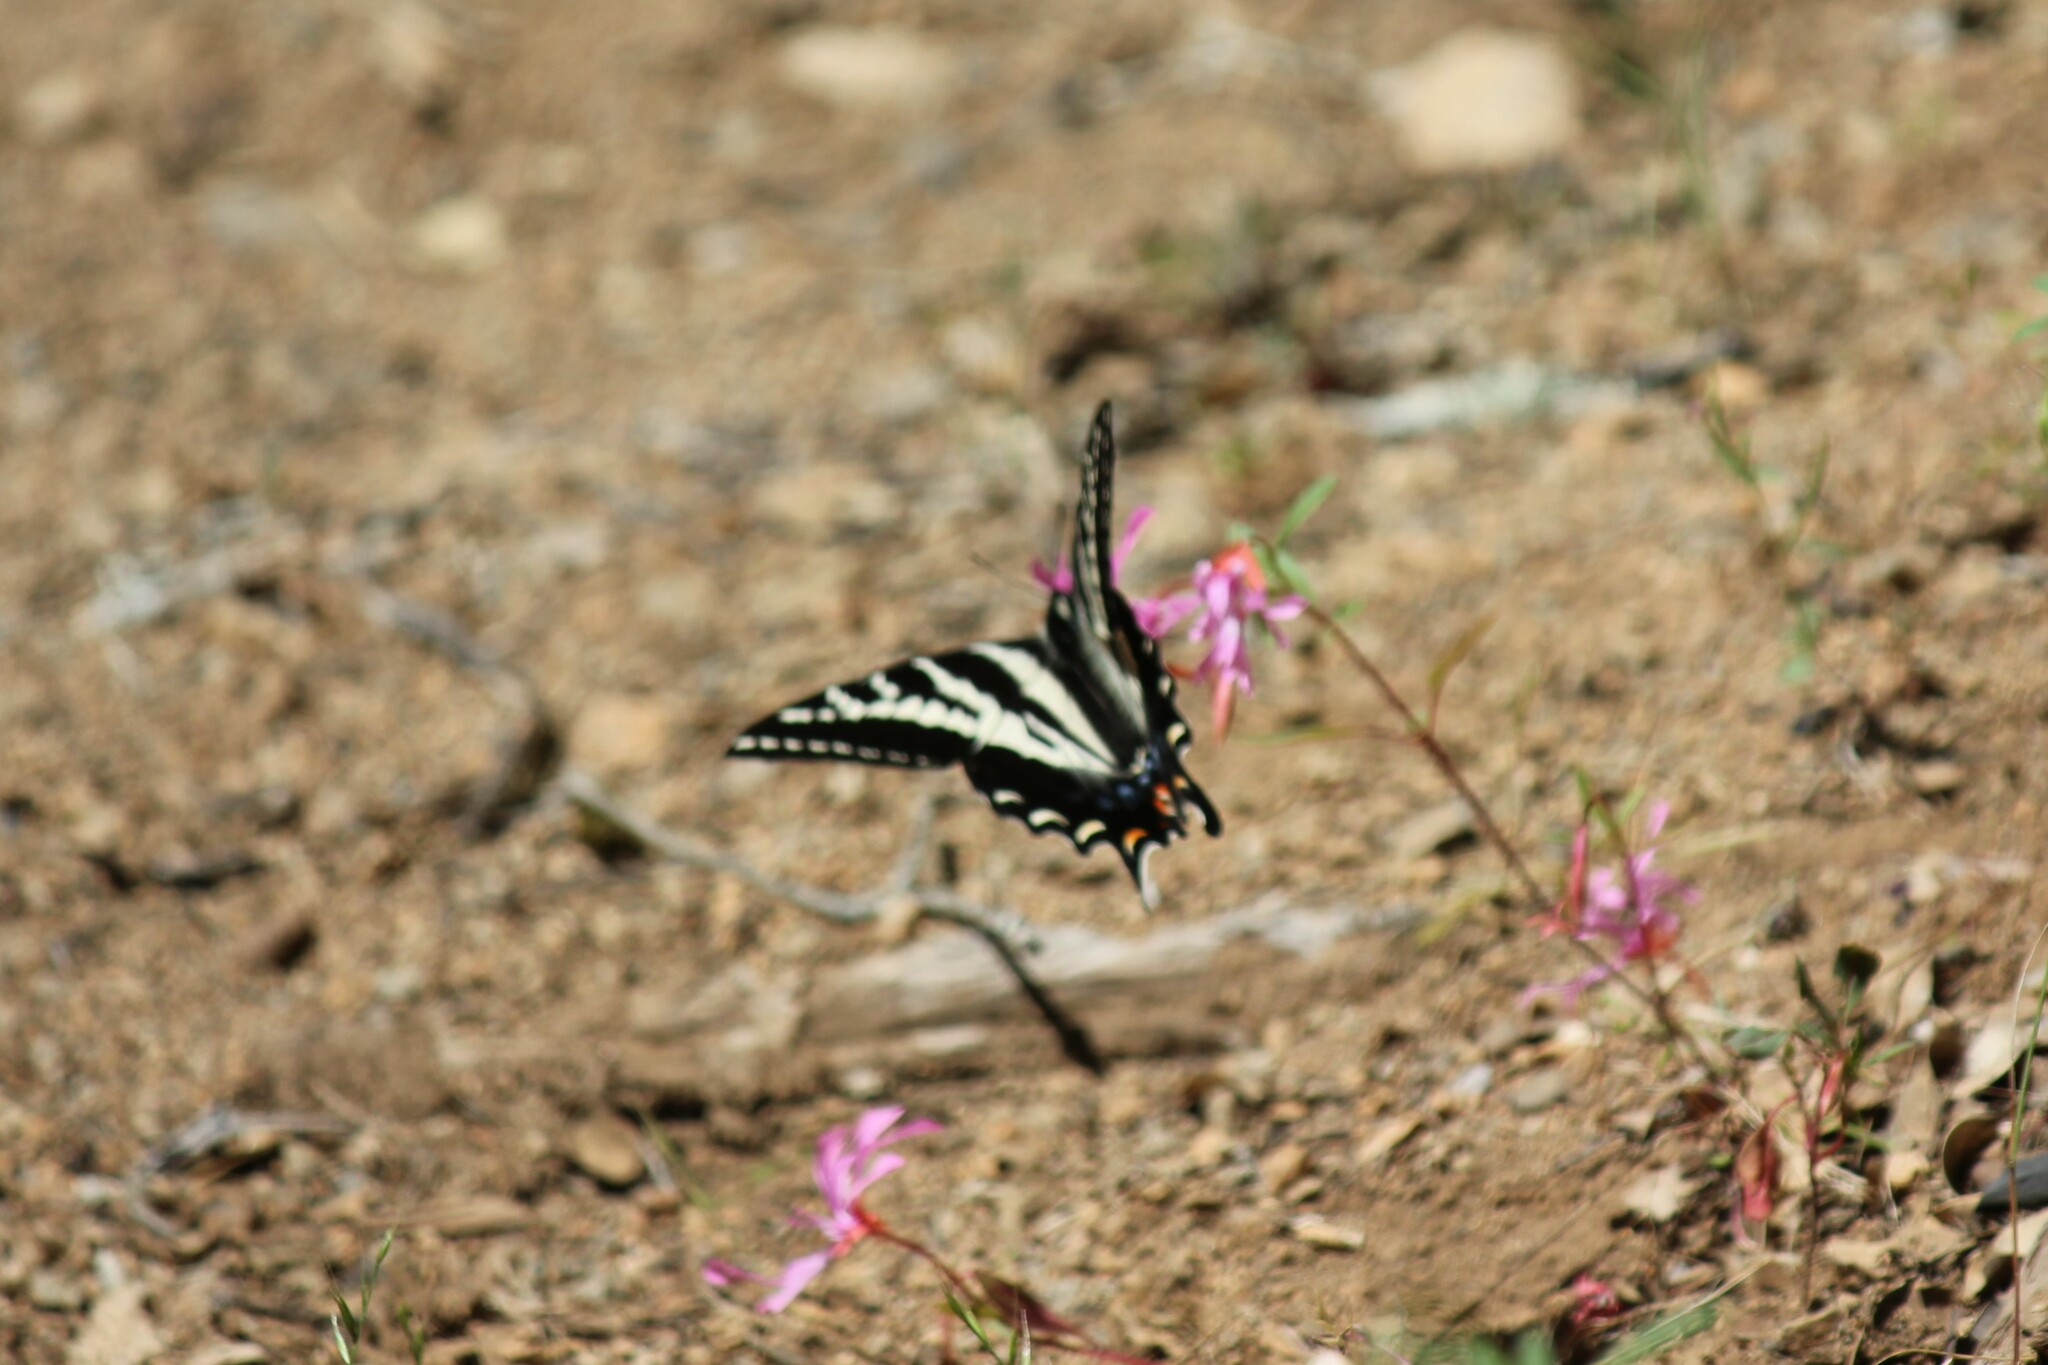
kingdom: Animalia
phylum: Arthropoda
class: Insecta
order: Lepidoptera
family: Papilionidae
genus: Papilio
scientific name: Papilio eurymedon
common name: Pale tiger swallowtail
